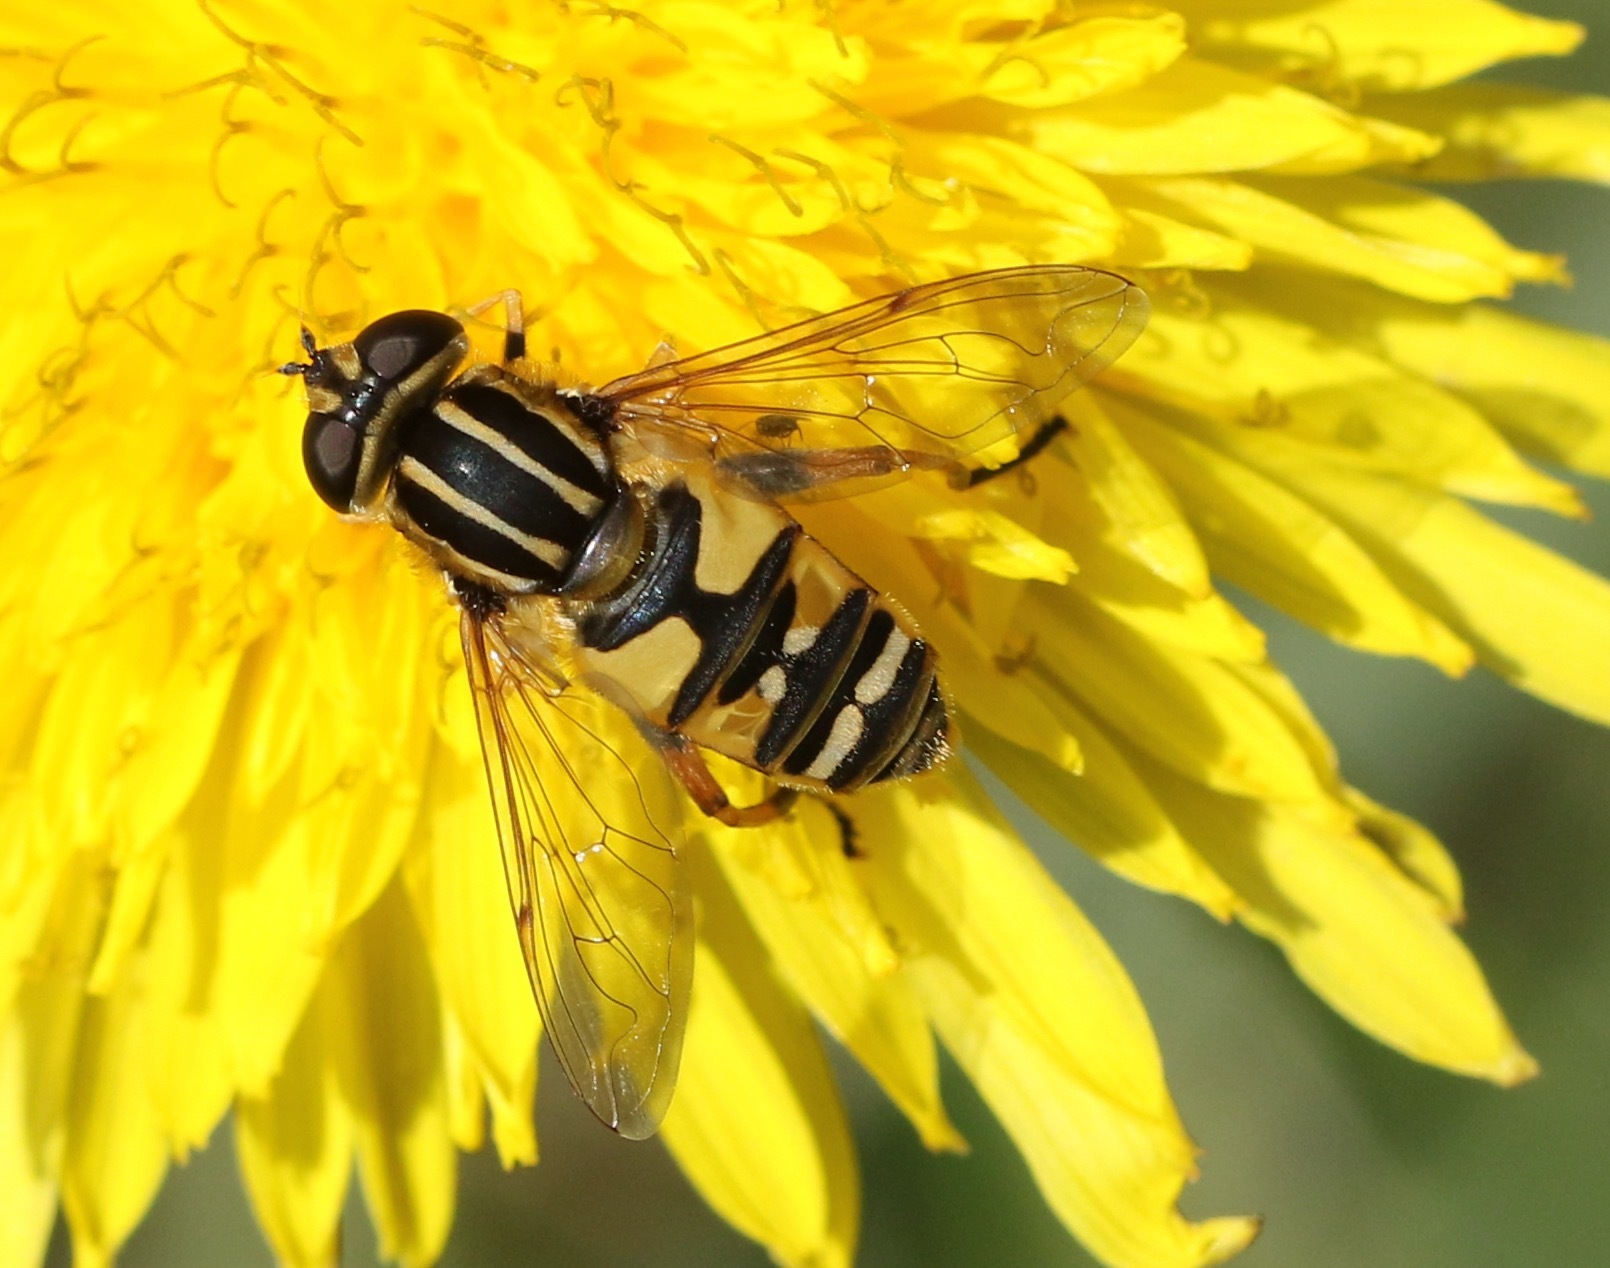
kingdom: Animalia
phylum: Arthropoda
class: Insecta
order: Diptera
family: Syrphidae
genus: Helophilus
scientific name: Helophilus pendulus
